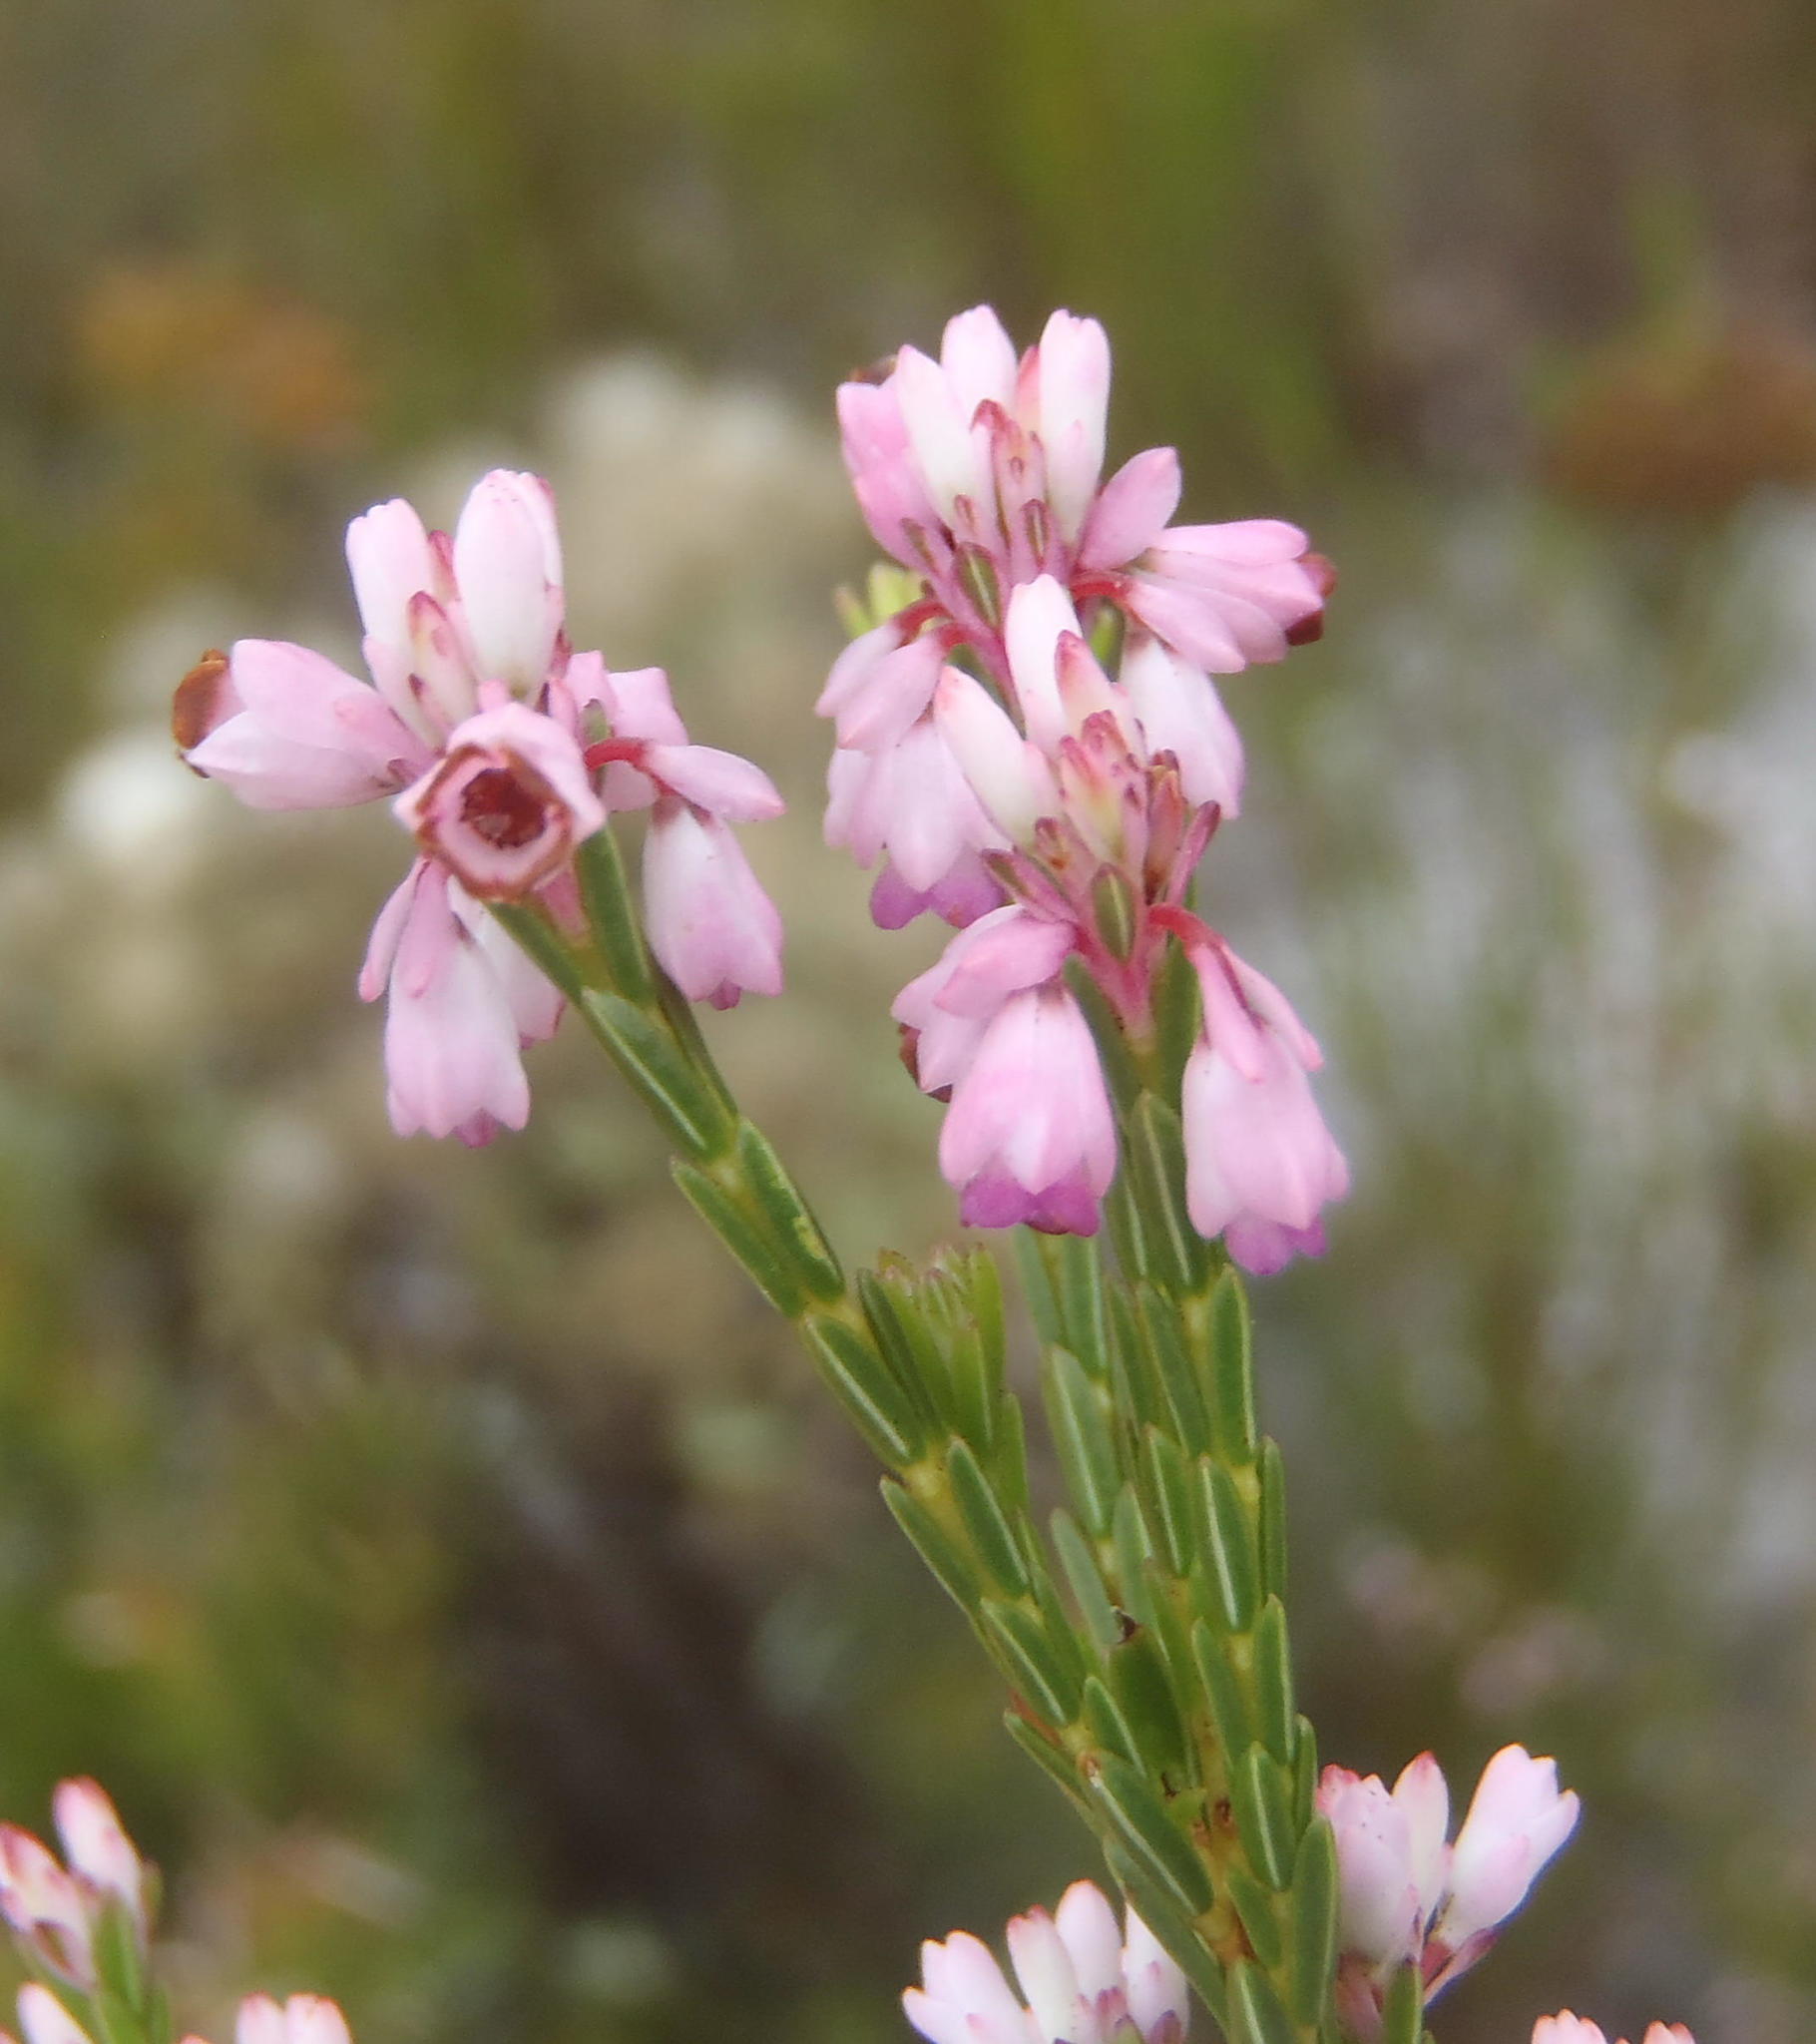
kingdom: Plantae
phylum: Tracheophyta
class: Magnoliopsida
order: Ericales
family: Ericaceae
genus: Erica
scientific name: Erica articularis
